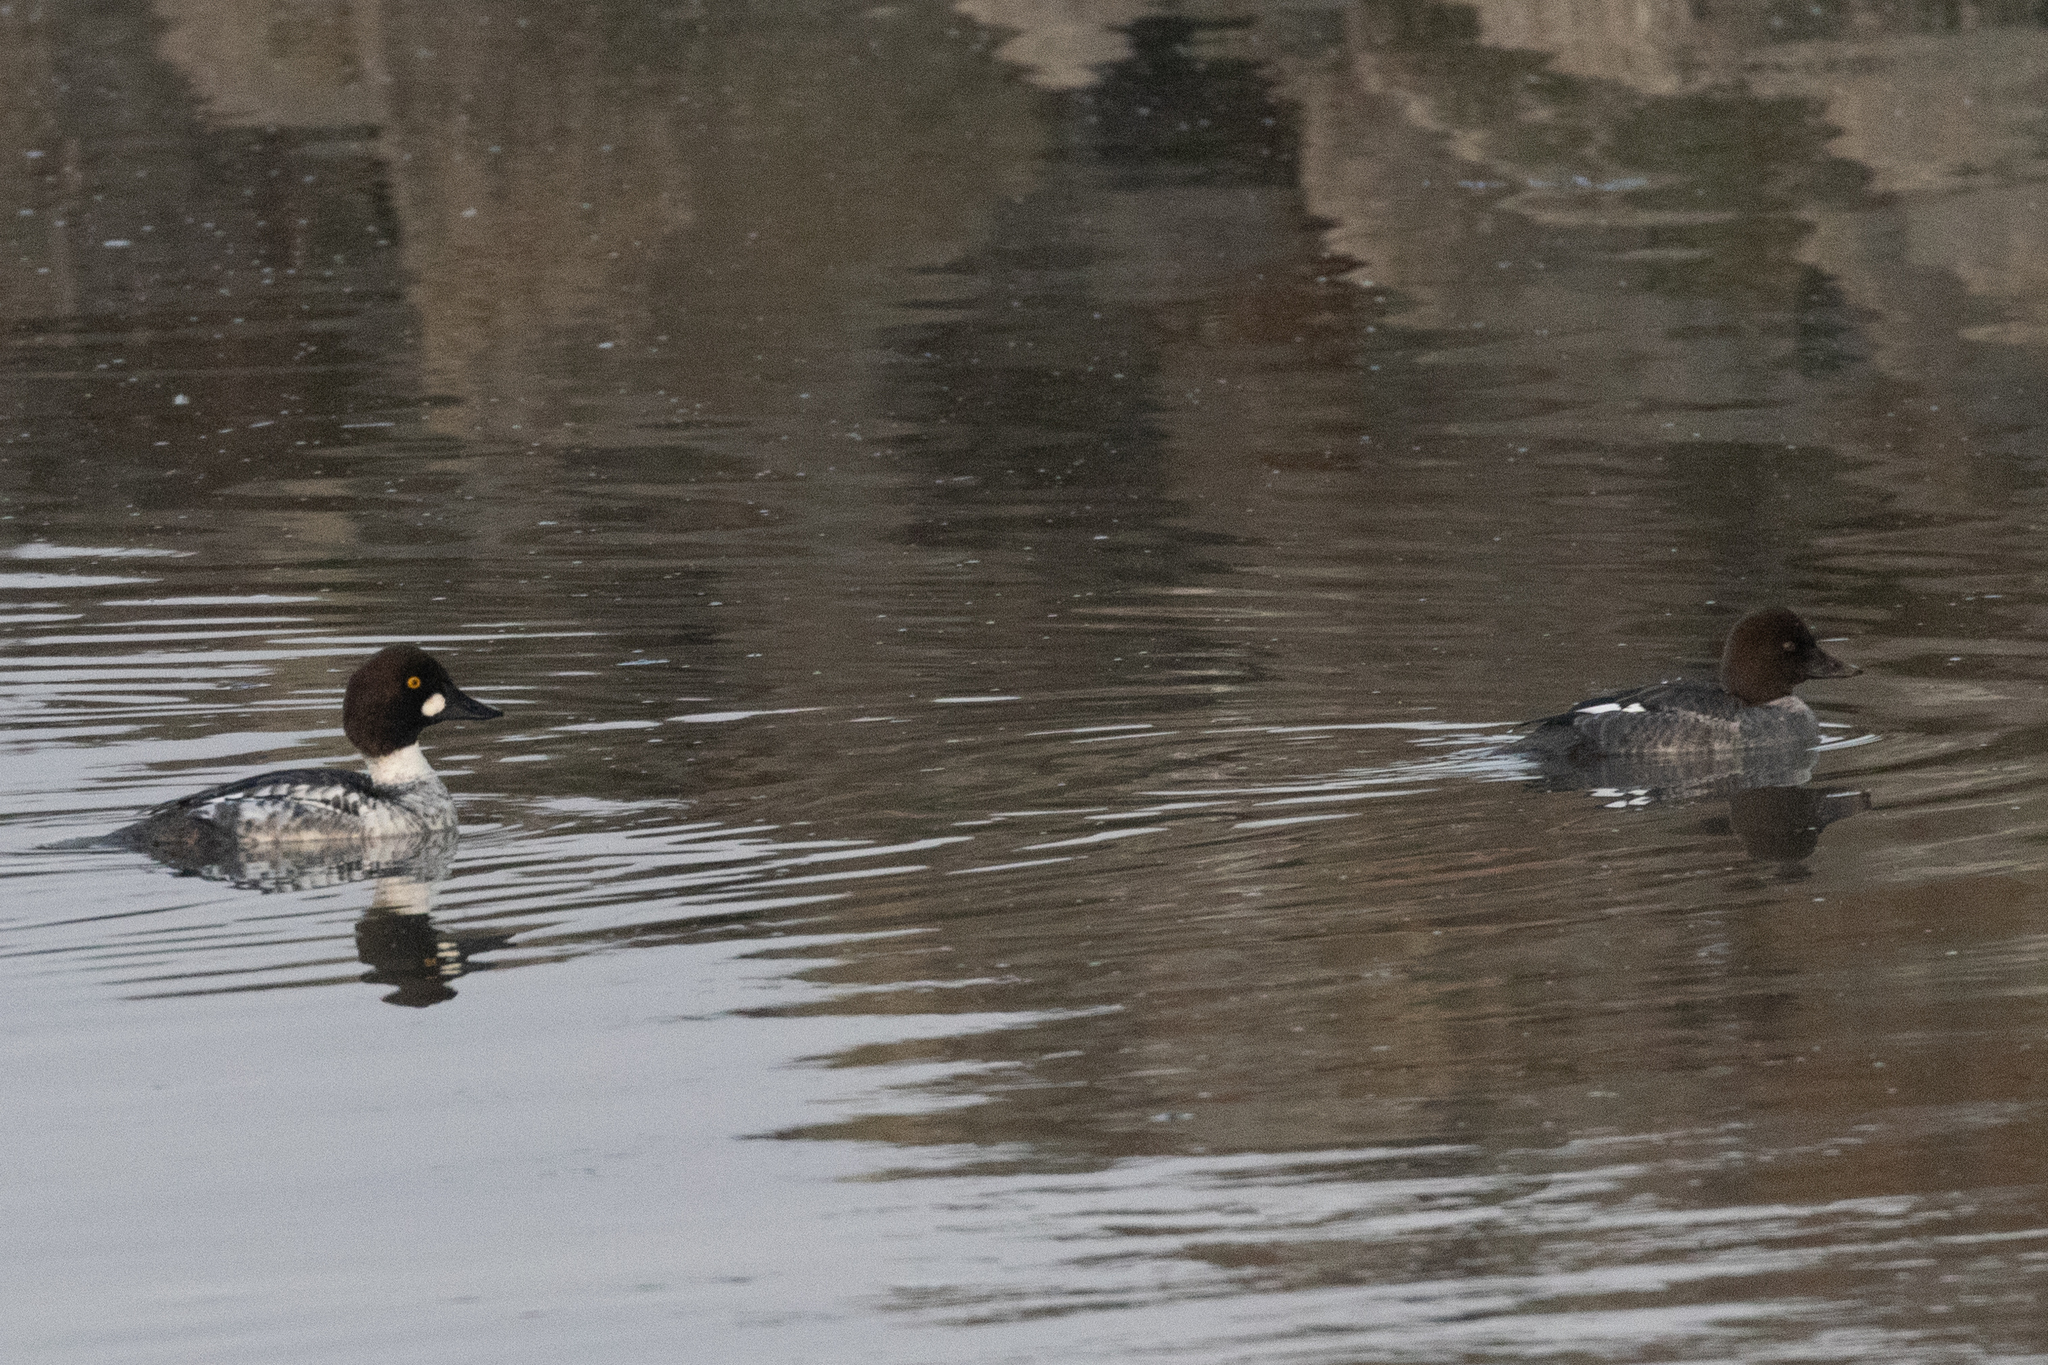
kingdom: Animalia
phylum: Chordata
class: Aves
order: Anseriformes
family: Anatidae
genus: Bucephala
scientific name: Bucephala clangula
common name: Common goldeneye
